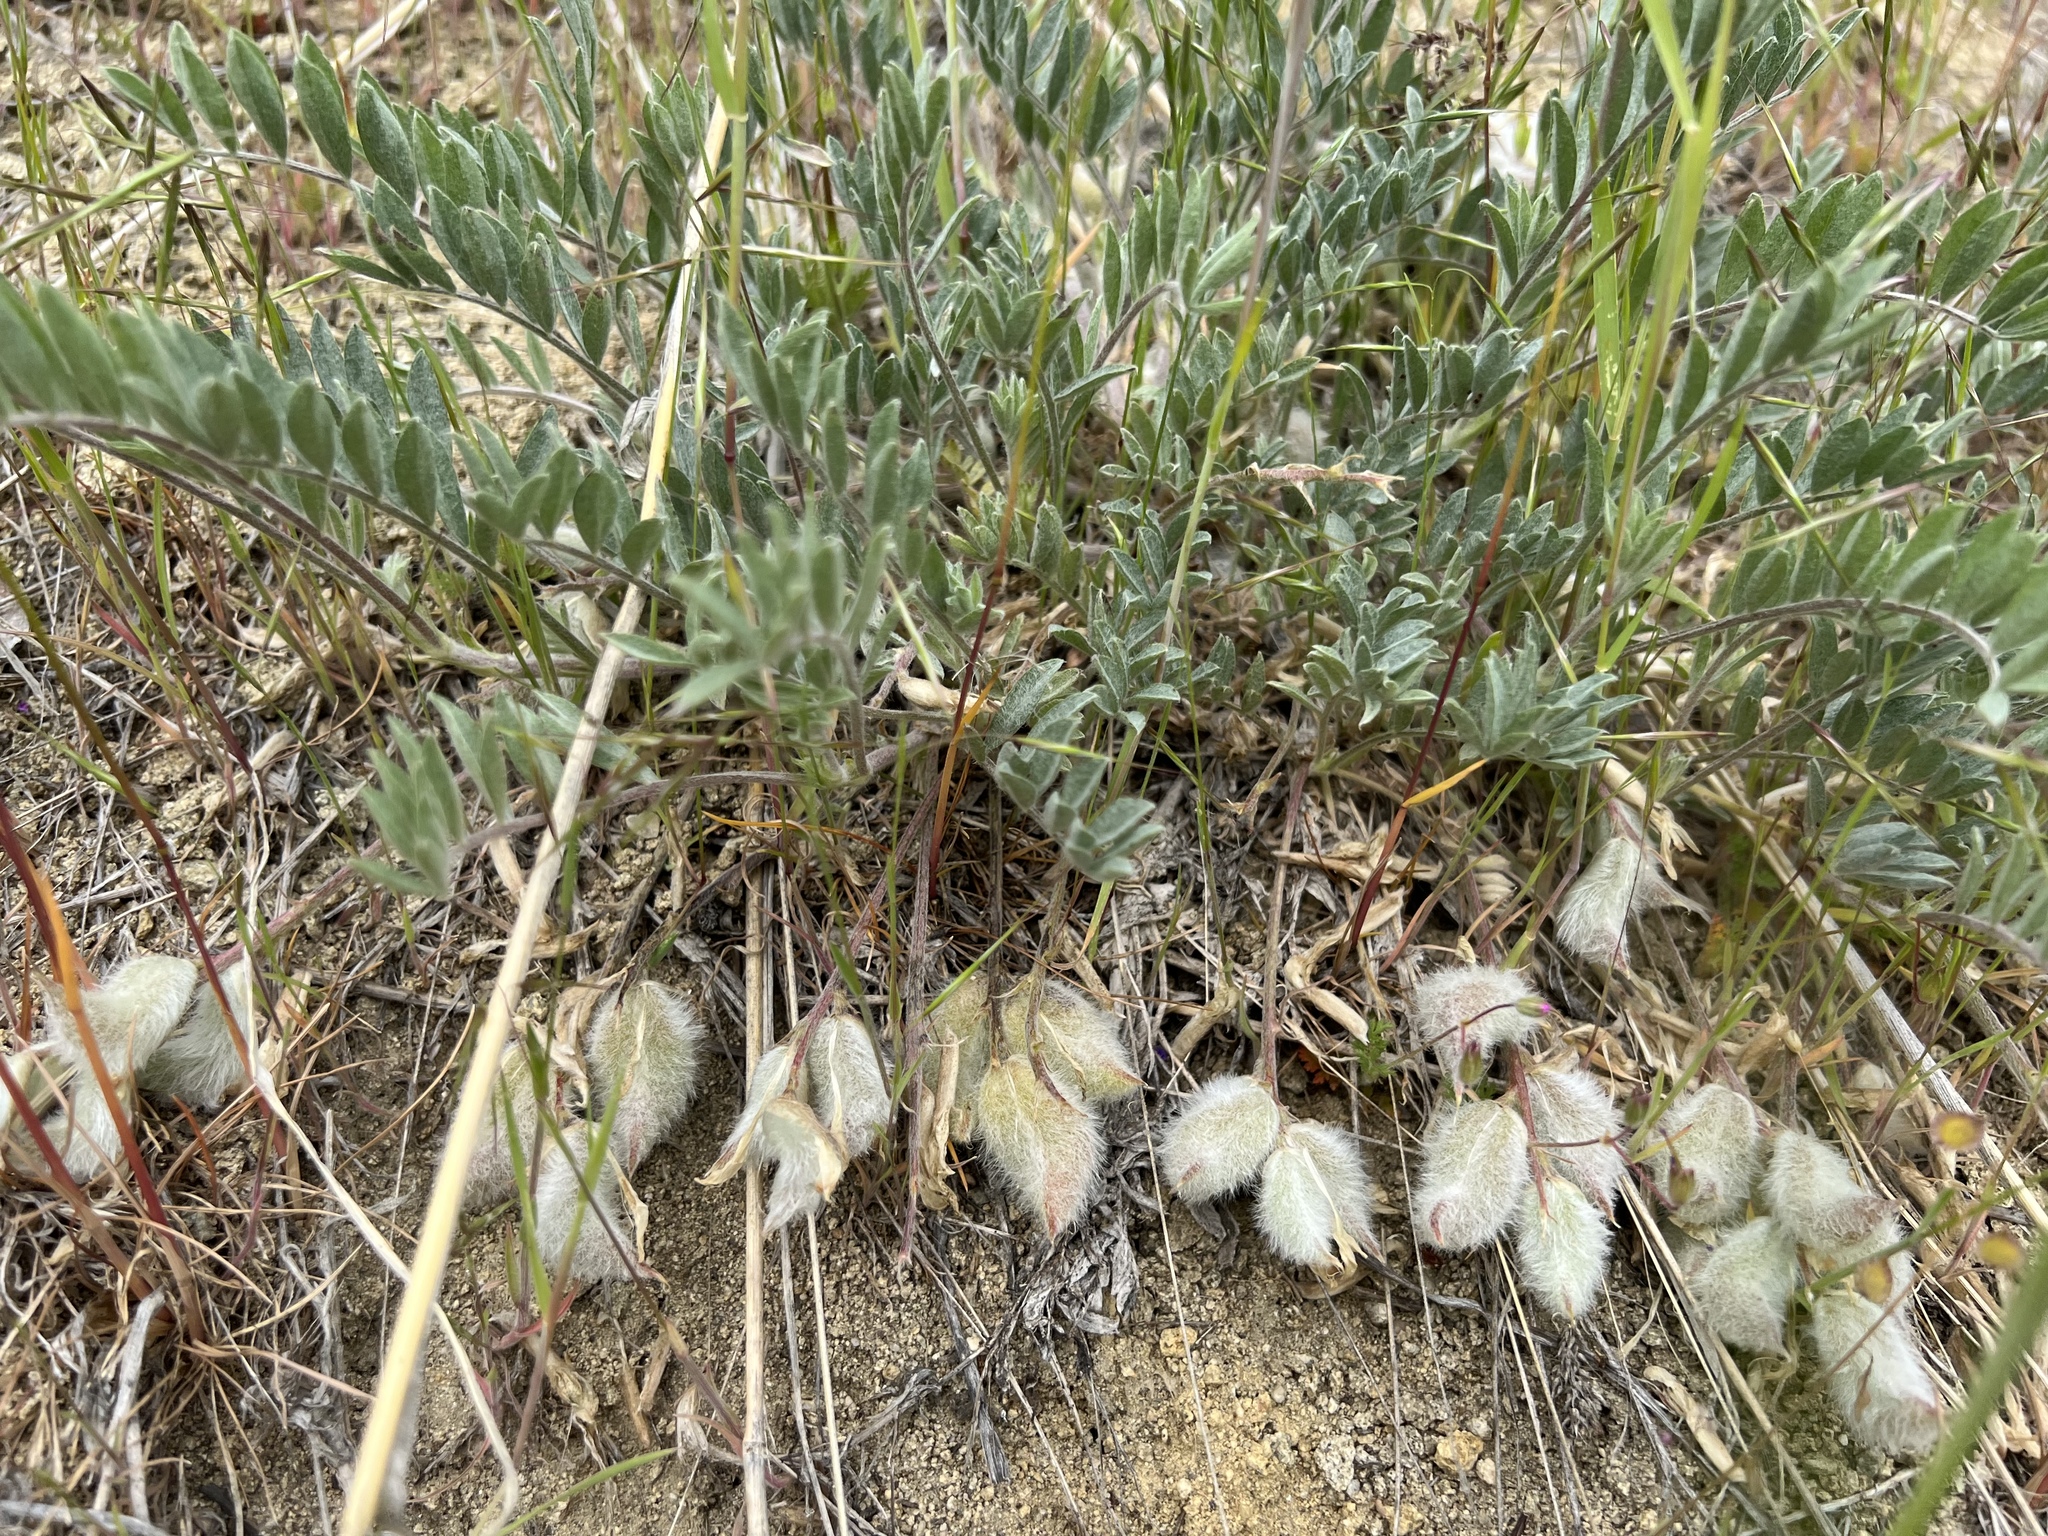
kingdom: Plantae
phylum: Tracheophyta
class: Magnoliopsida
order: Fabales
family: Fabaceae
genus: Astragalus
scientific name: Astragalus purshii
